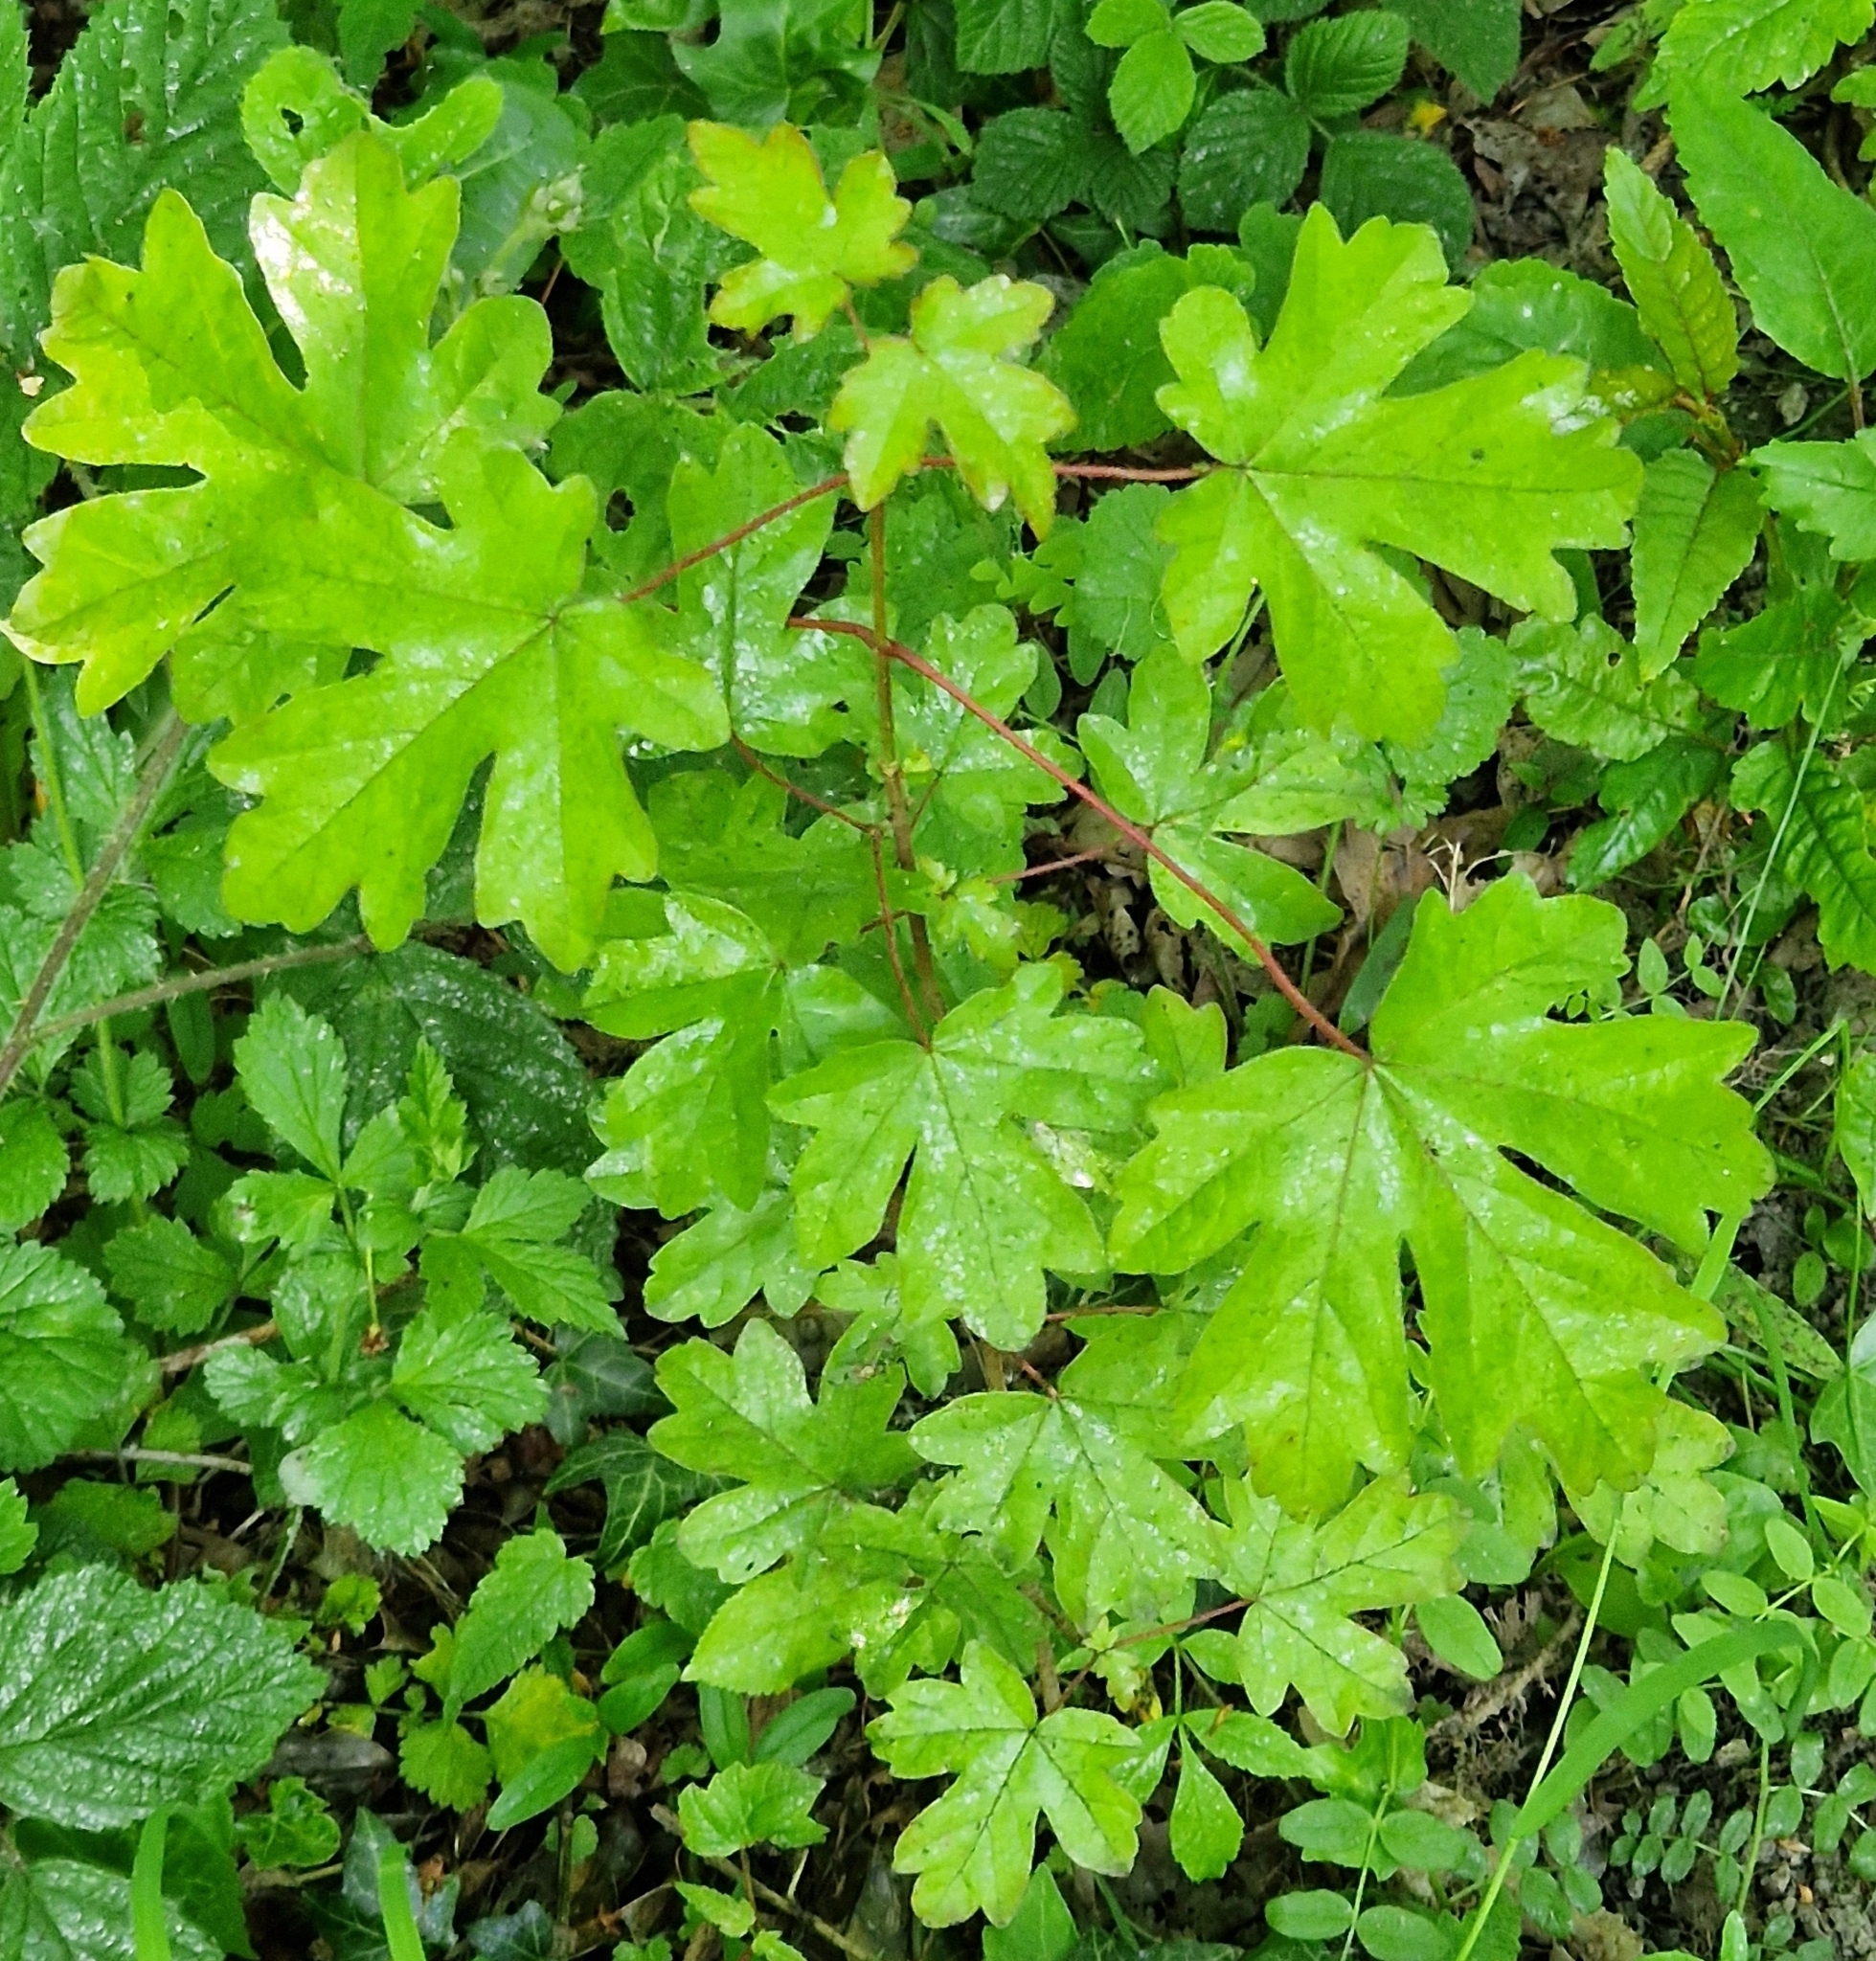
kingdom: Plantae
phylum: Tracheophyta
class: Magnoliopsida
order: Sapindales
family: Sapindaceae
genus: Acer
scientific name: Acer campestre
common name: Field maple
